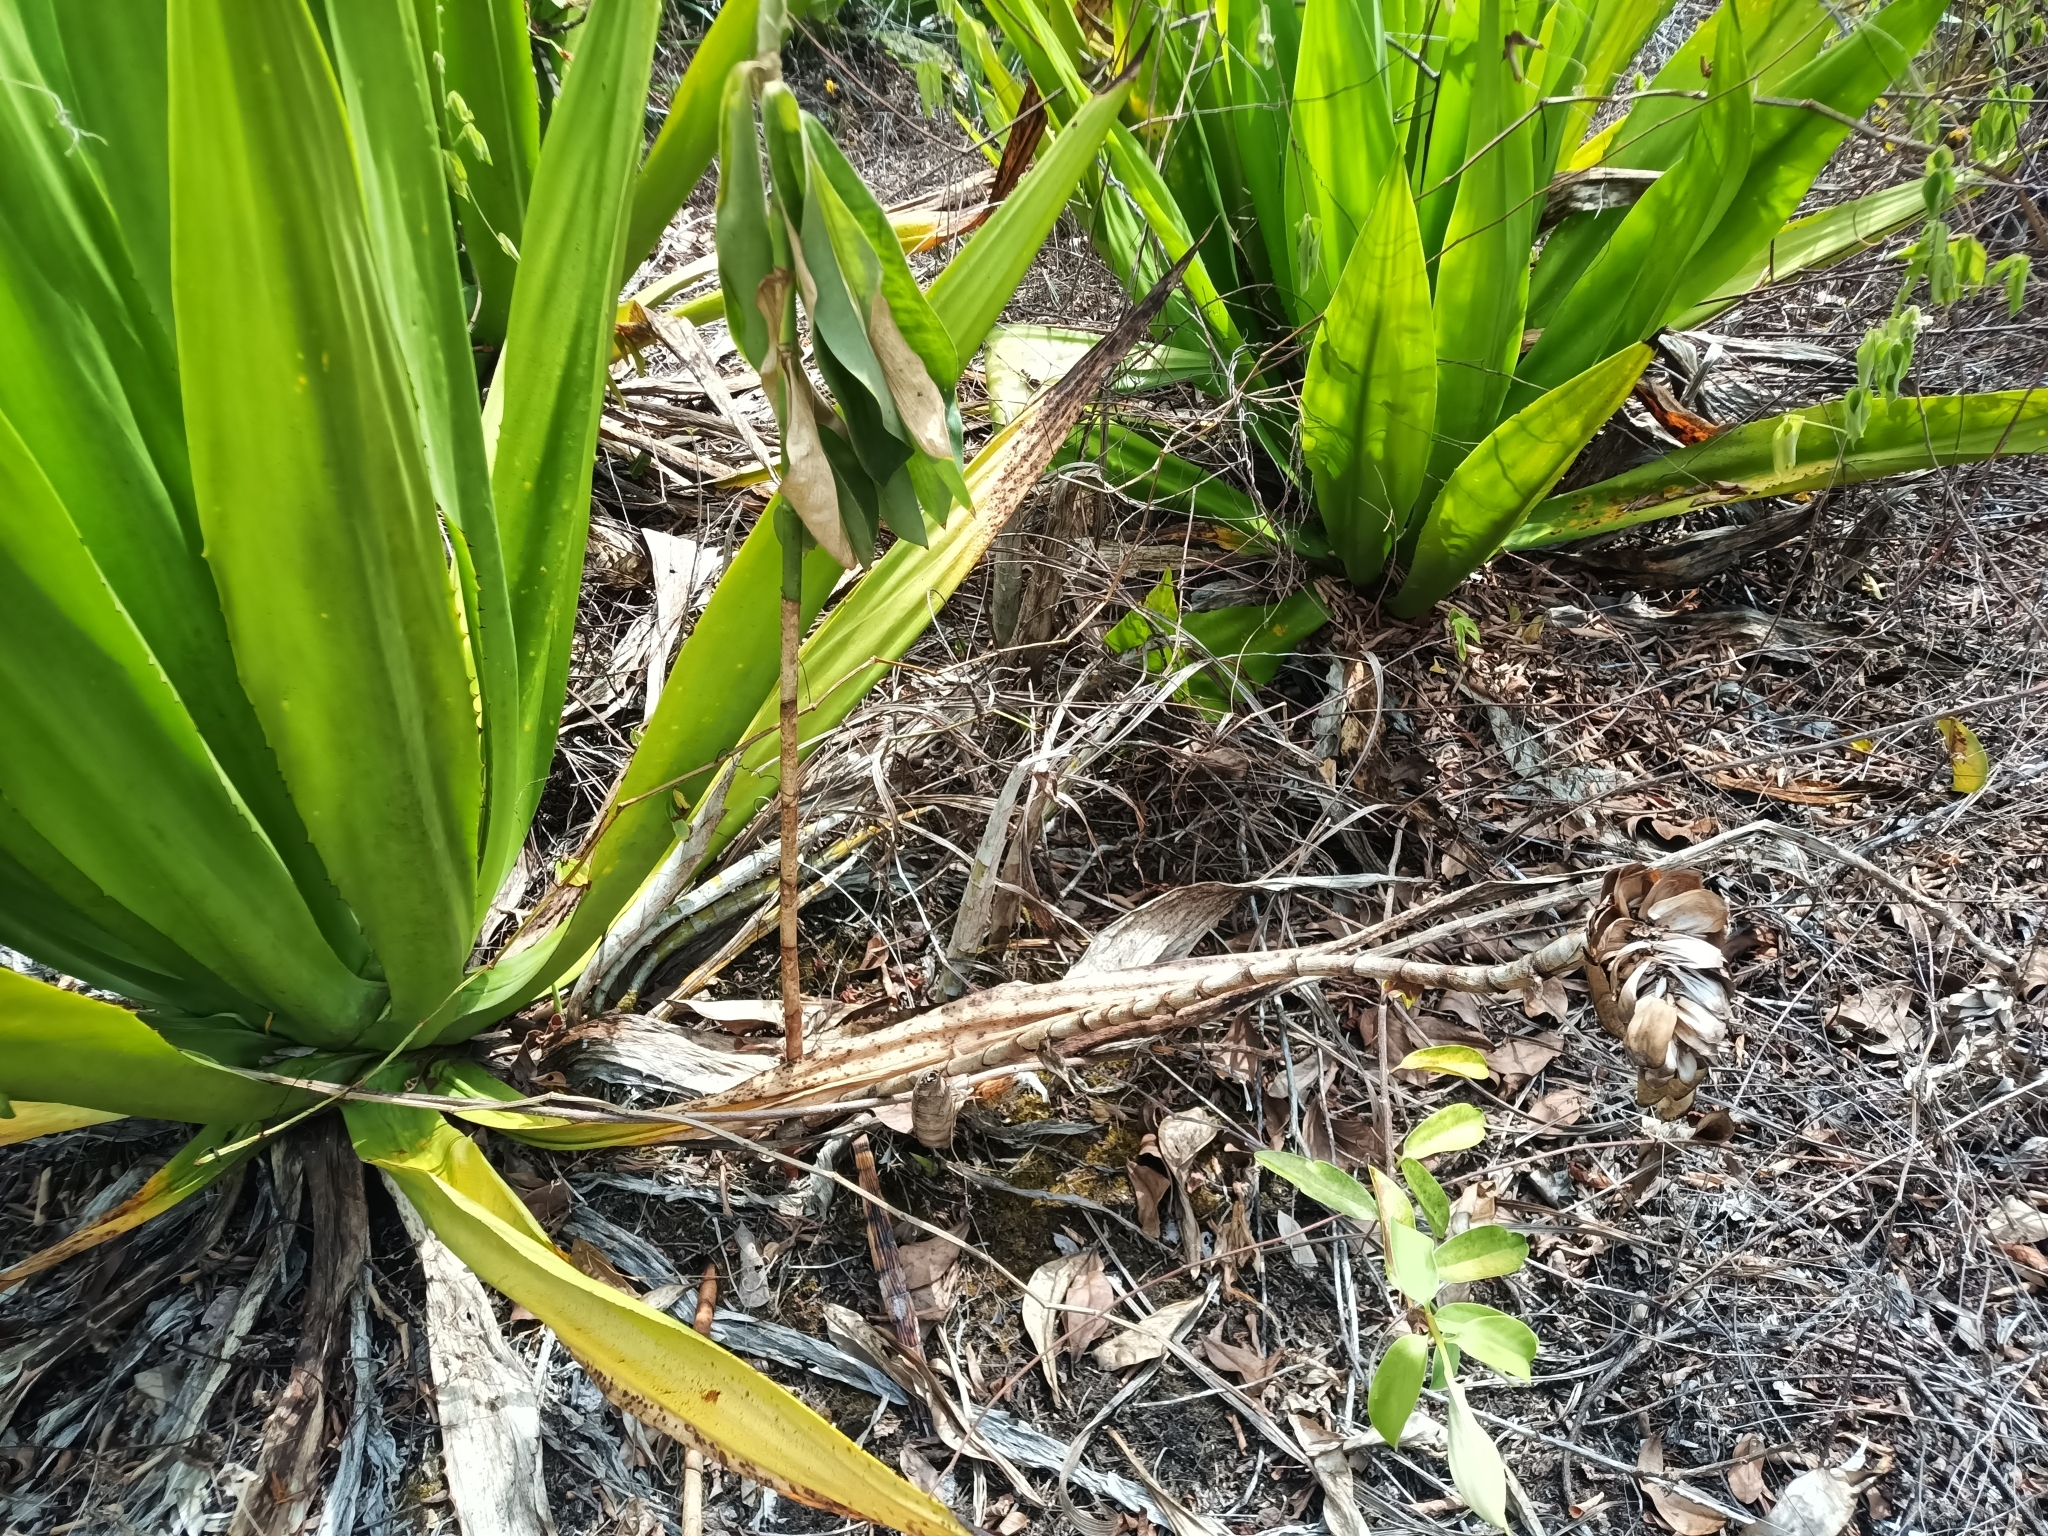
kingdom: Plantae
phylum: Tracheophyta
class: Liliopsida
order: Asparagales
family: Asparagaceae
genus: Furcraea
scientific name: Furcraea foetida
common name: Mauritius hemp
